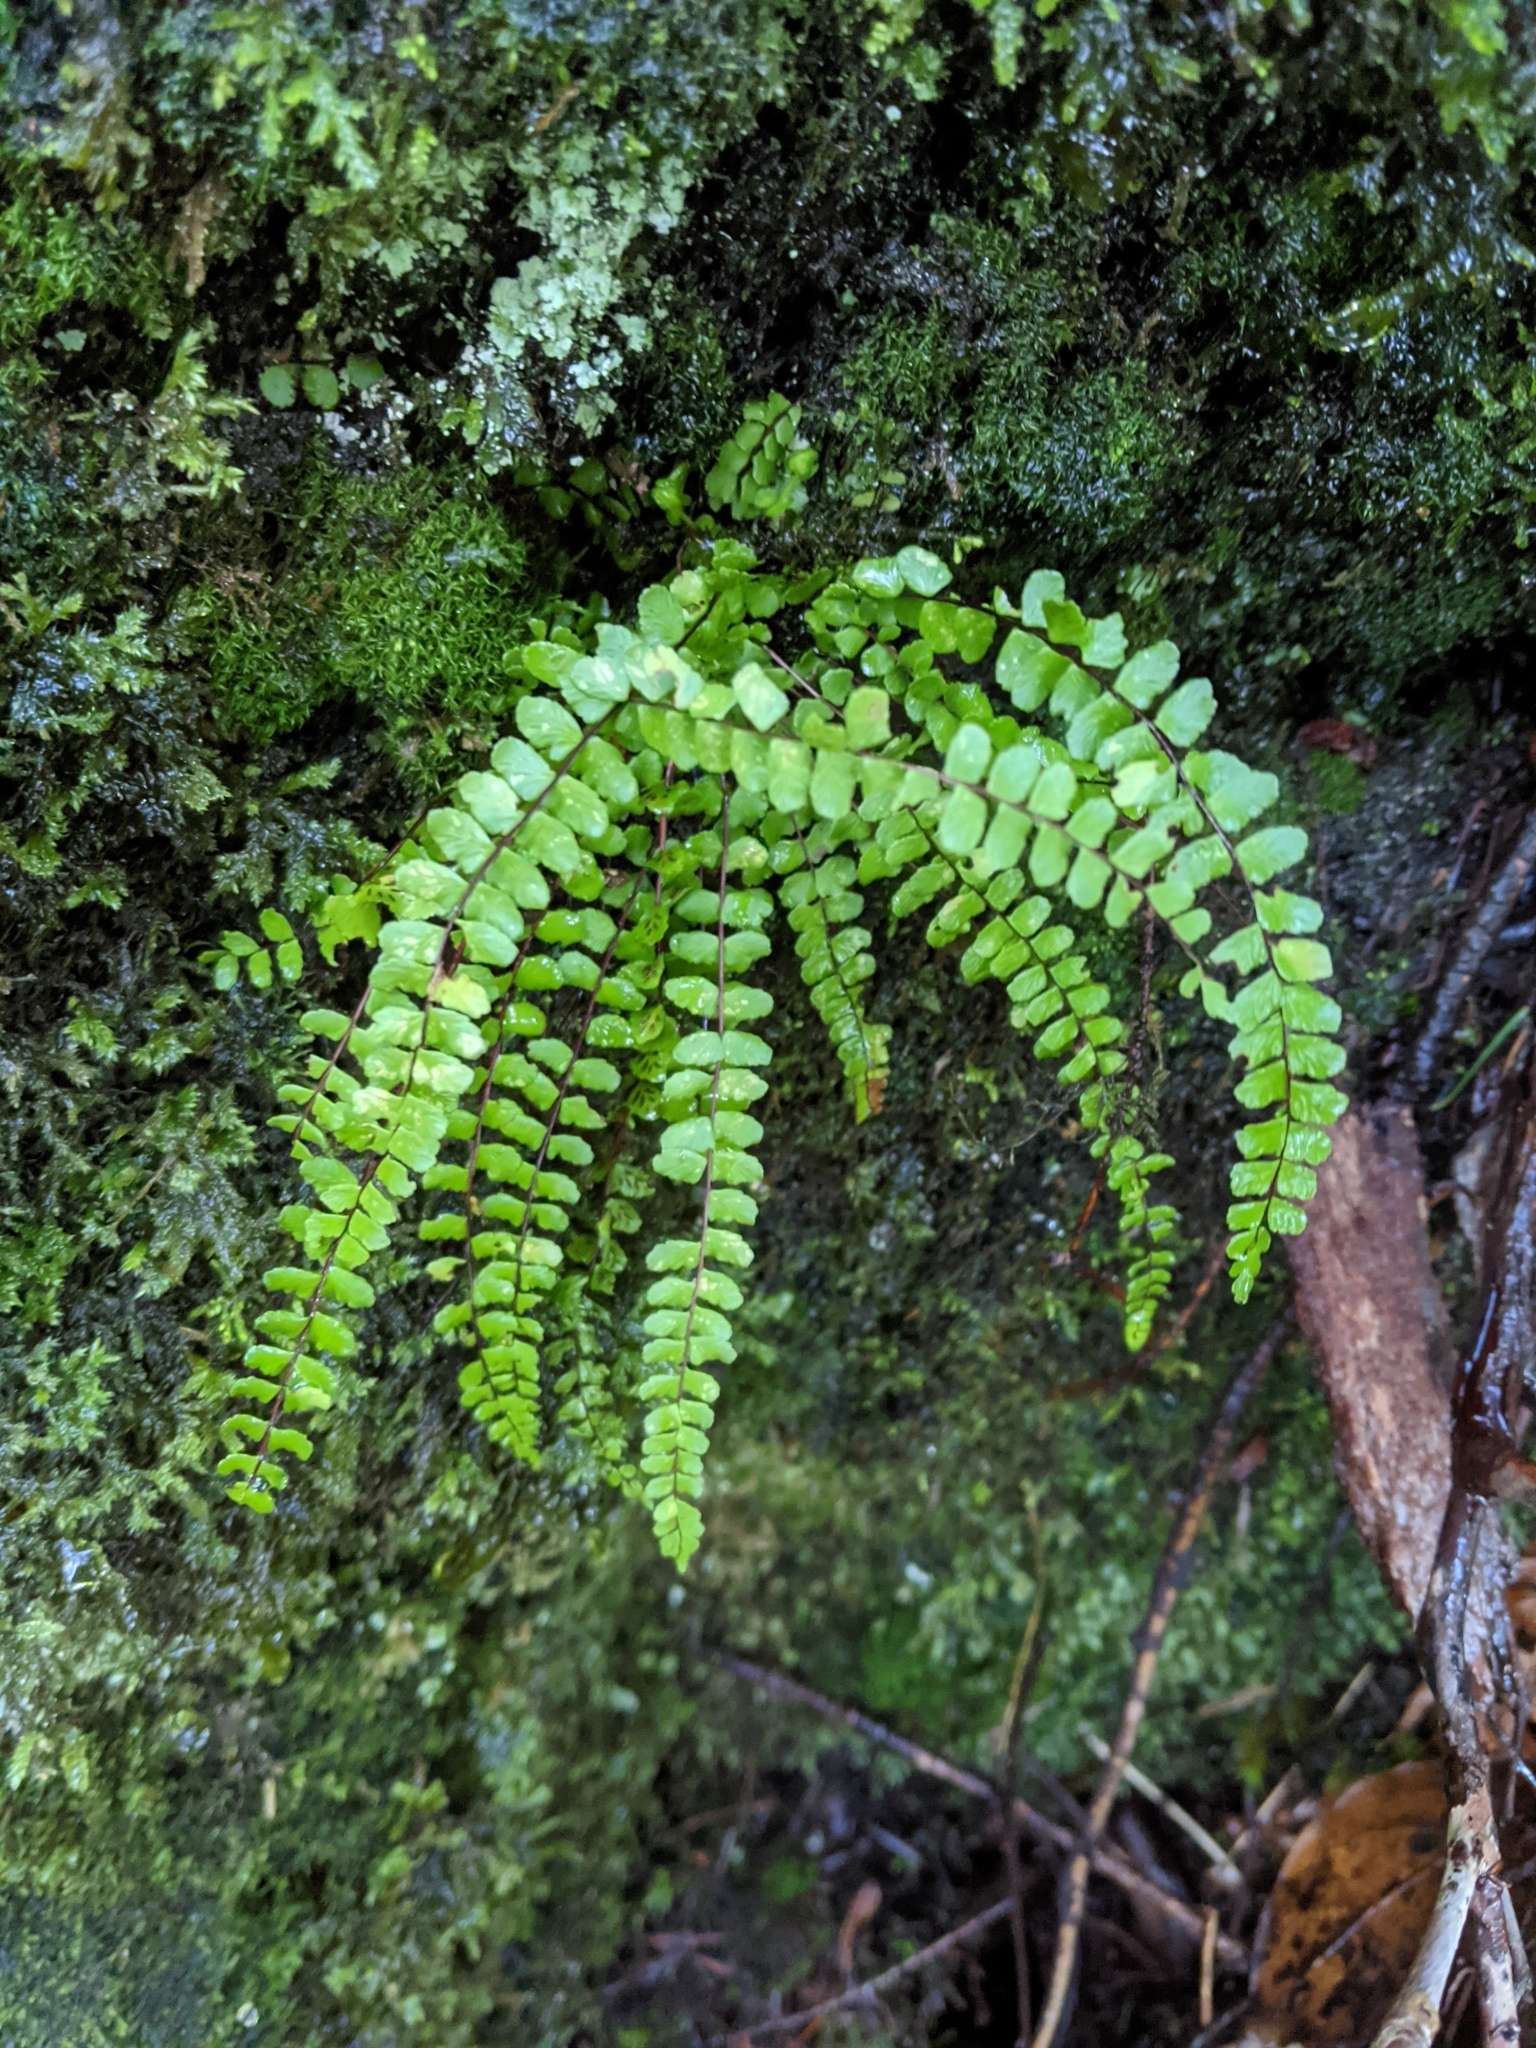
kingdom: Plantae
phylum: Tracheophyta
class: Polypodiopsida
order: Polypodiales
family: Aspleniaceae
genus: Asplenium
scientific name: Asplenium trichomanes
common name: Maidenhair spleenwort
